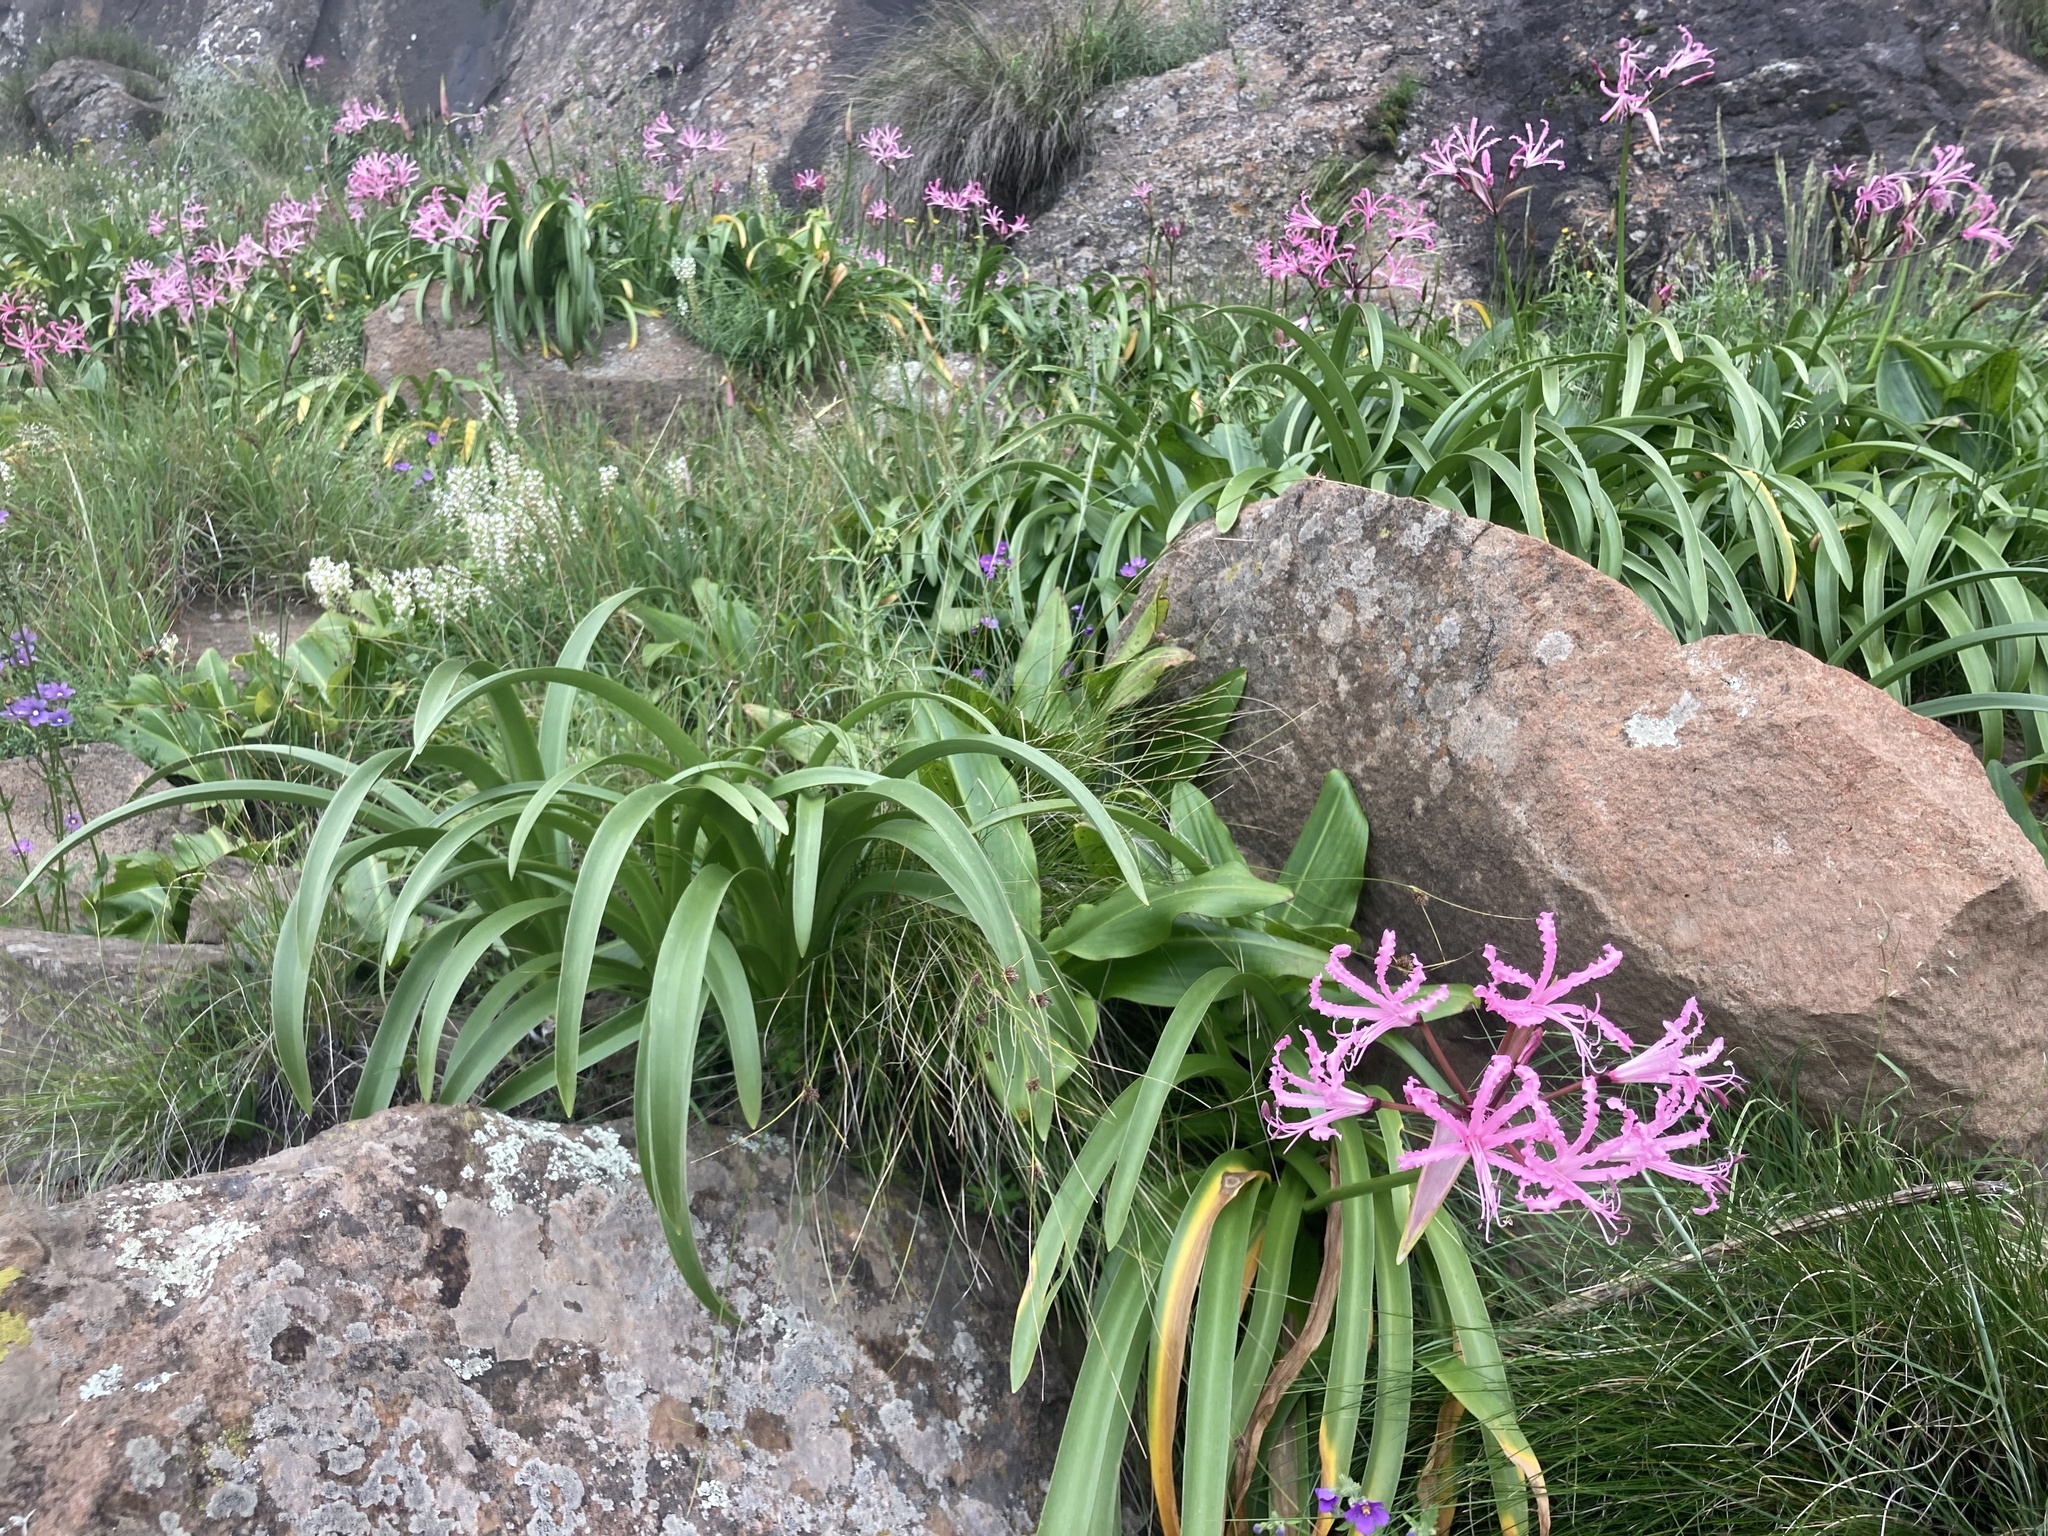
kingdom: Plantae
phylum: Tracheophyta
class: Liliopsida
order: Asparagales
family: Amaryllidaceae
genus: Nerine
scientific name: Nerine bowdenii
